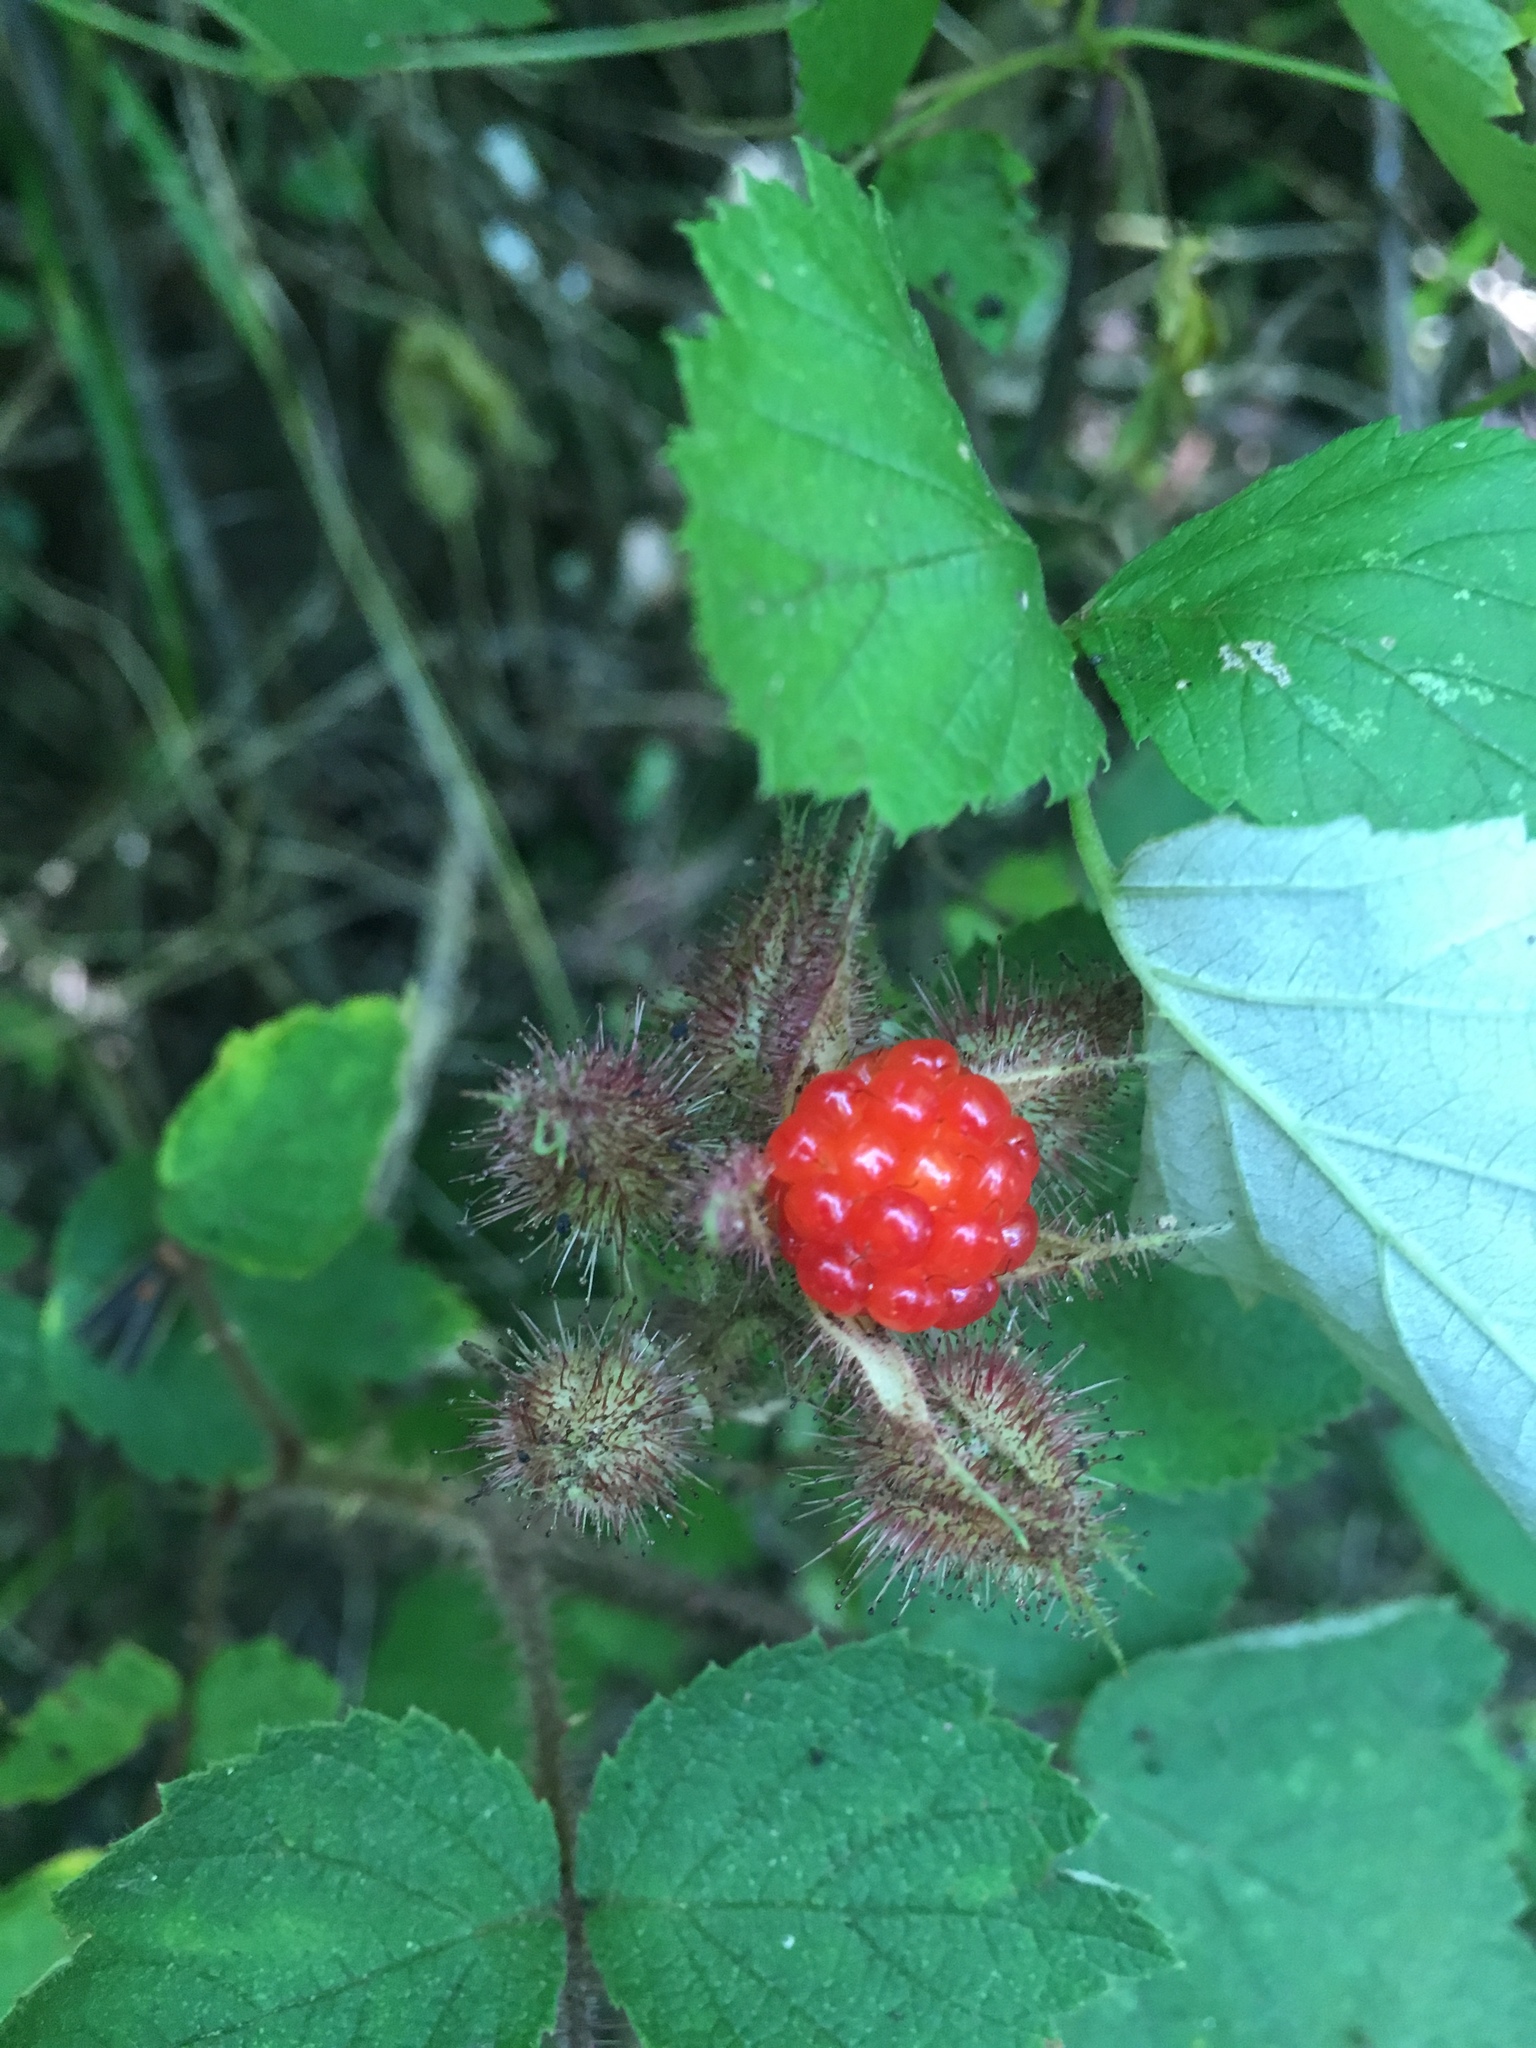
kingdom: Plantae
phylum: Tracheophyta
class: Magnoliopsida
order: Rosales
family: Rosaceae
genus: Rubus
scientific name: Rubus phoenicolasius
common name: Japanese wineberry
